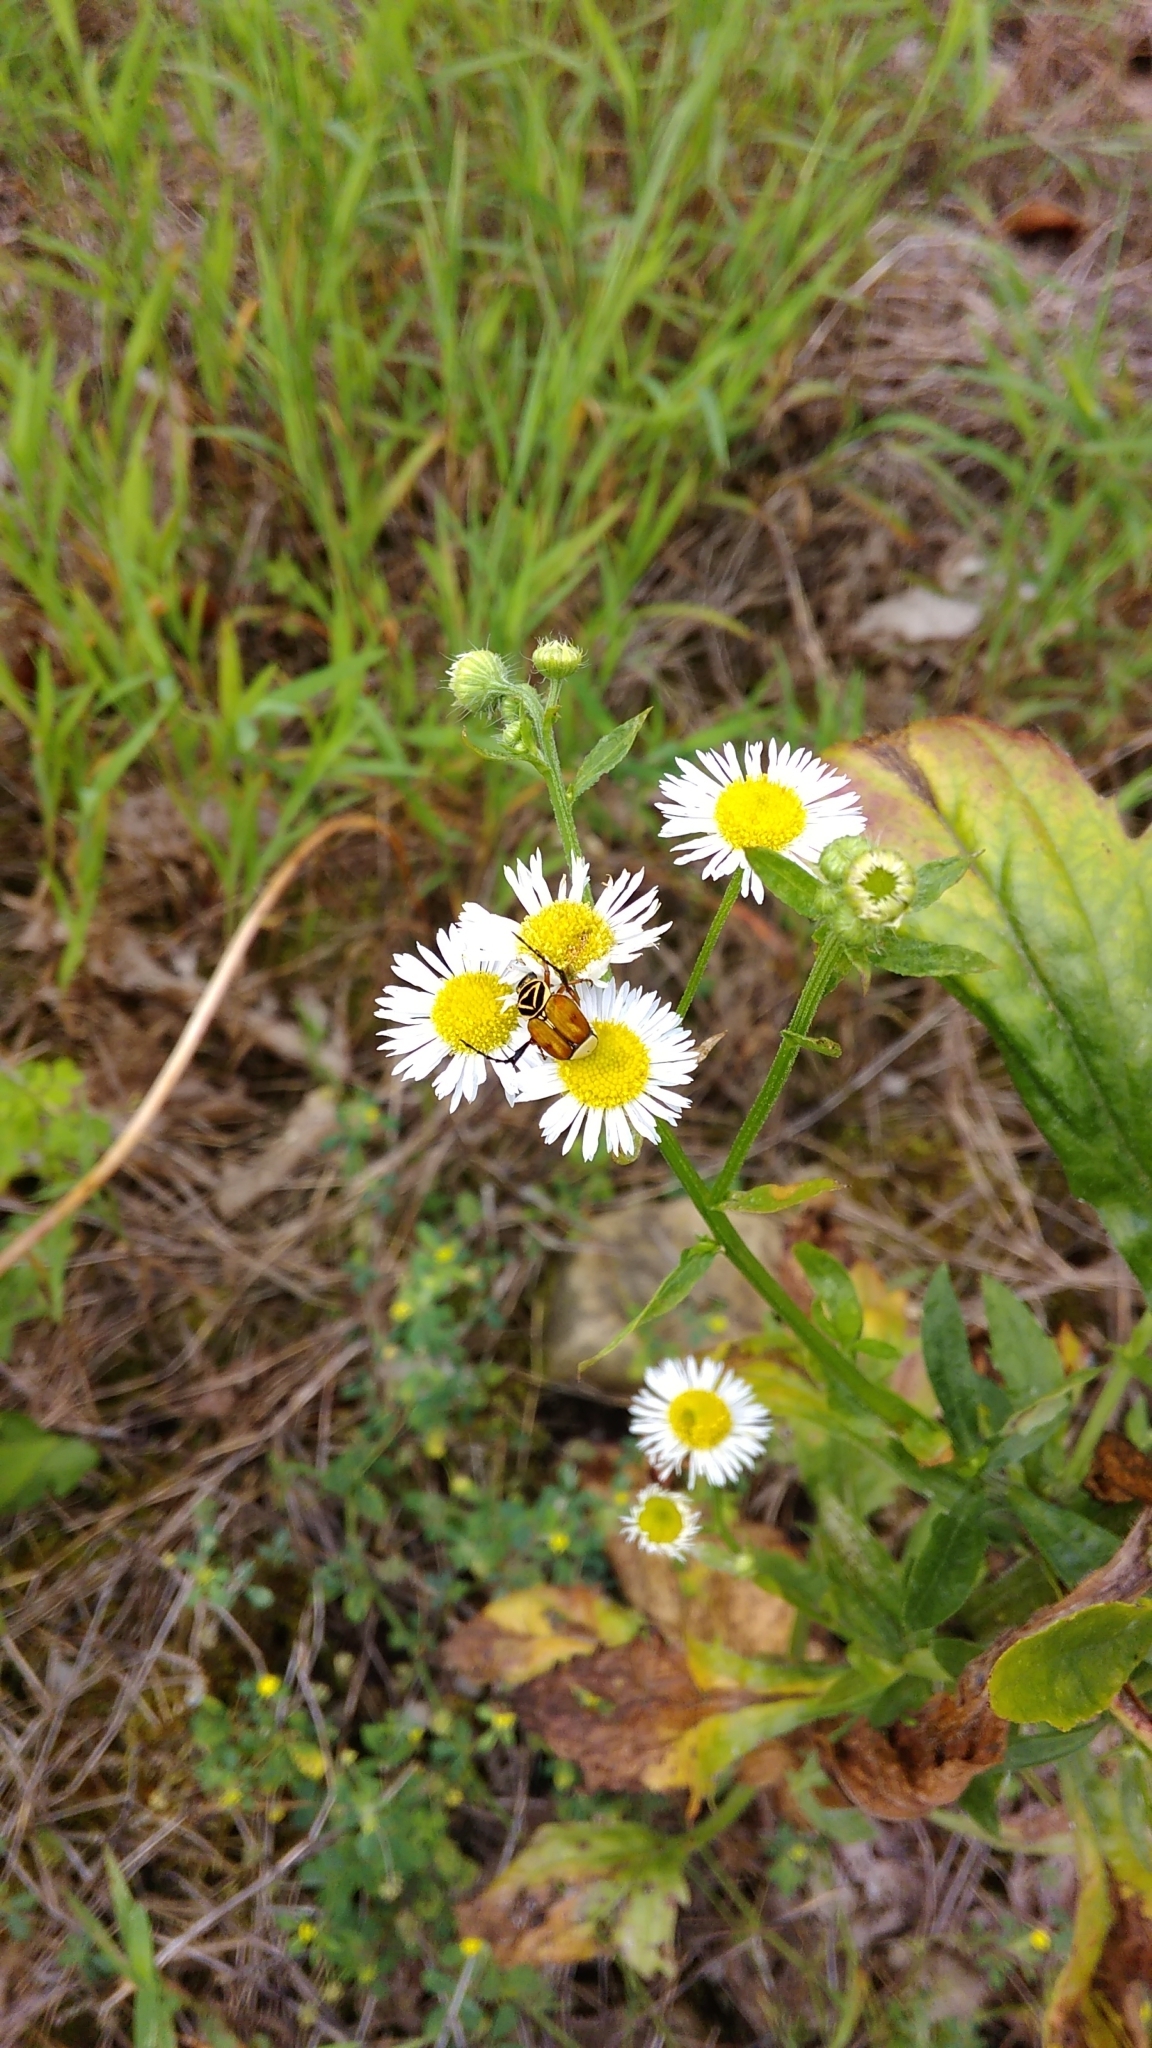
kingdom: Animalia
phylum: Arthropoda
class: Insecta
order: Coleoptera
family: Scarabaeidae
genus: Trigonopeltastes
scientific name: Trigonopeltastes delta
